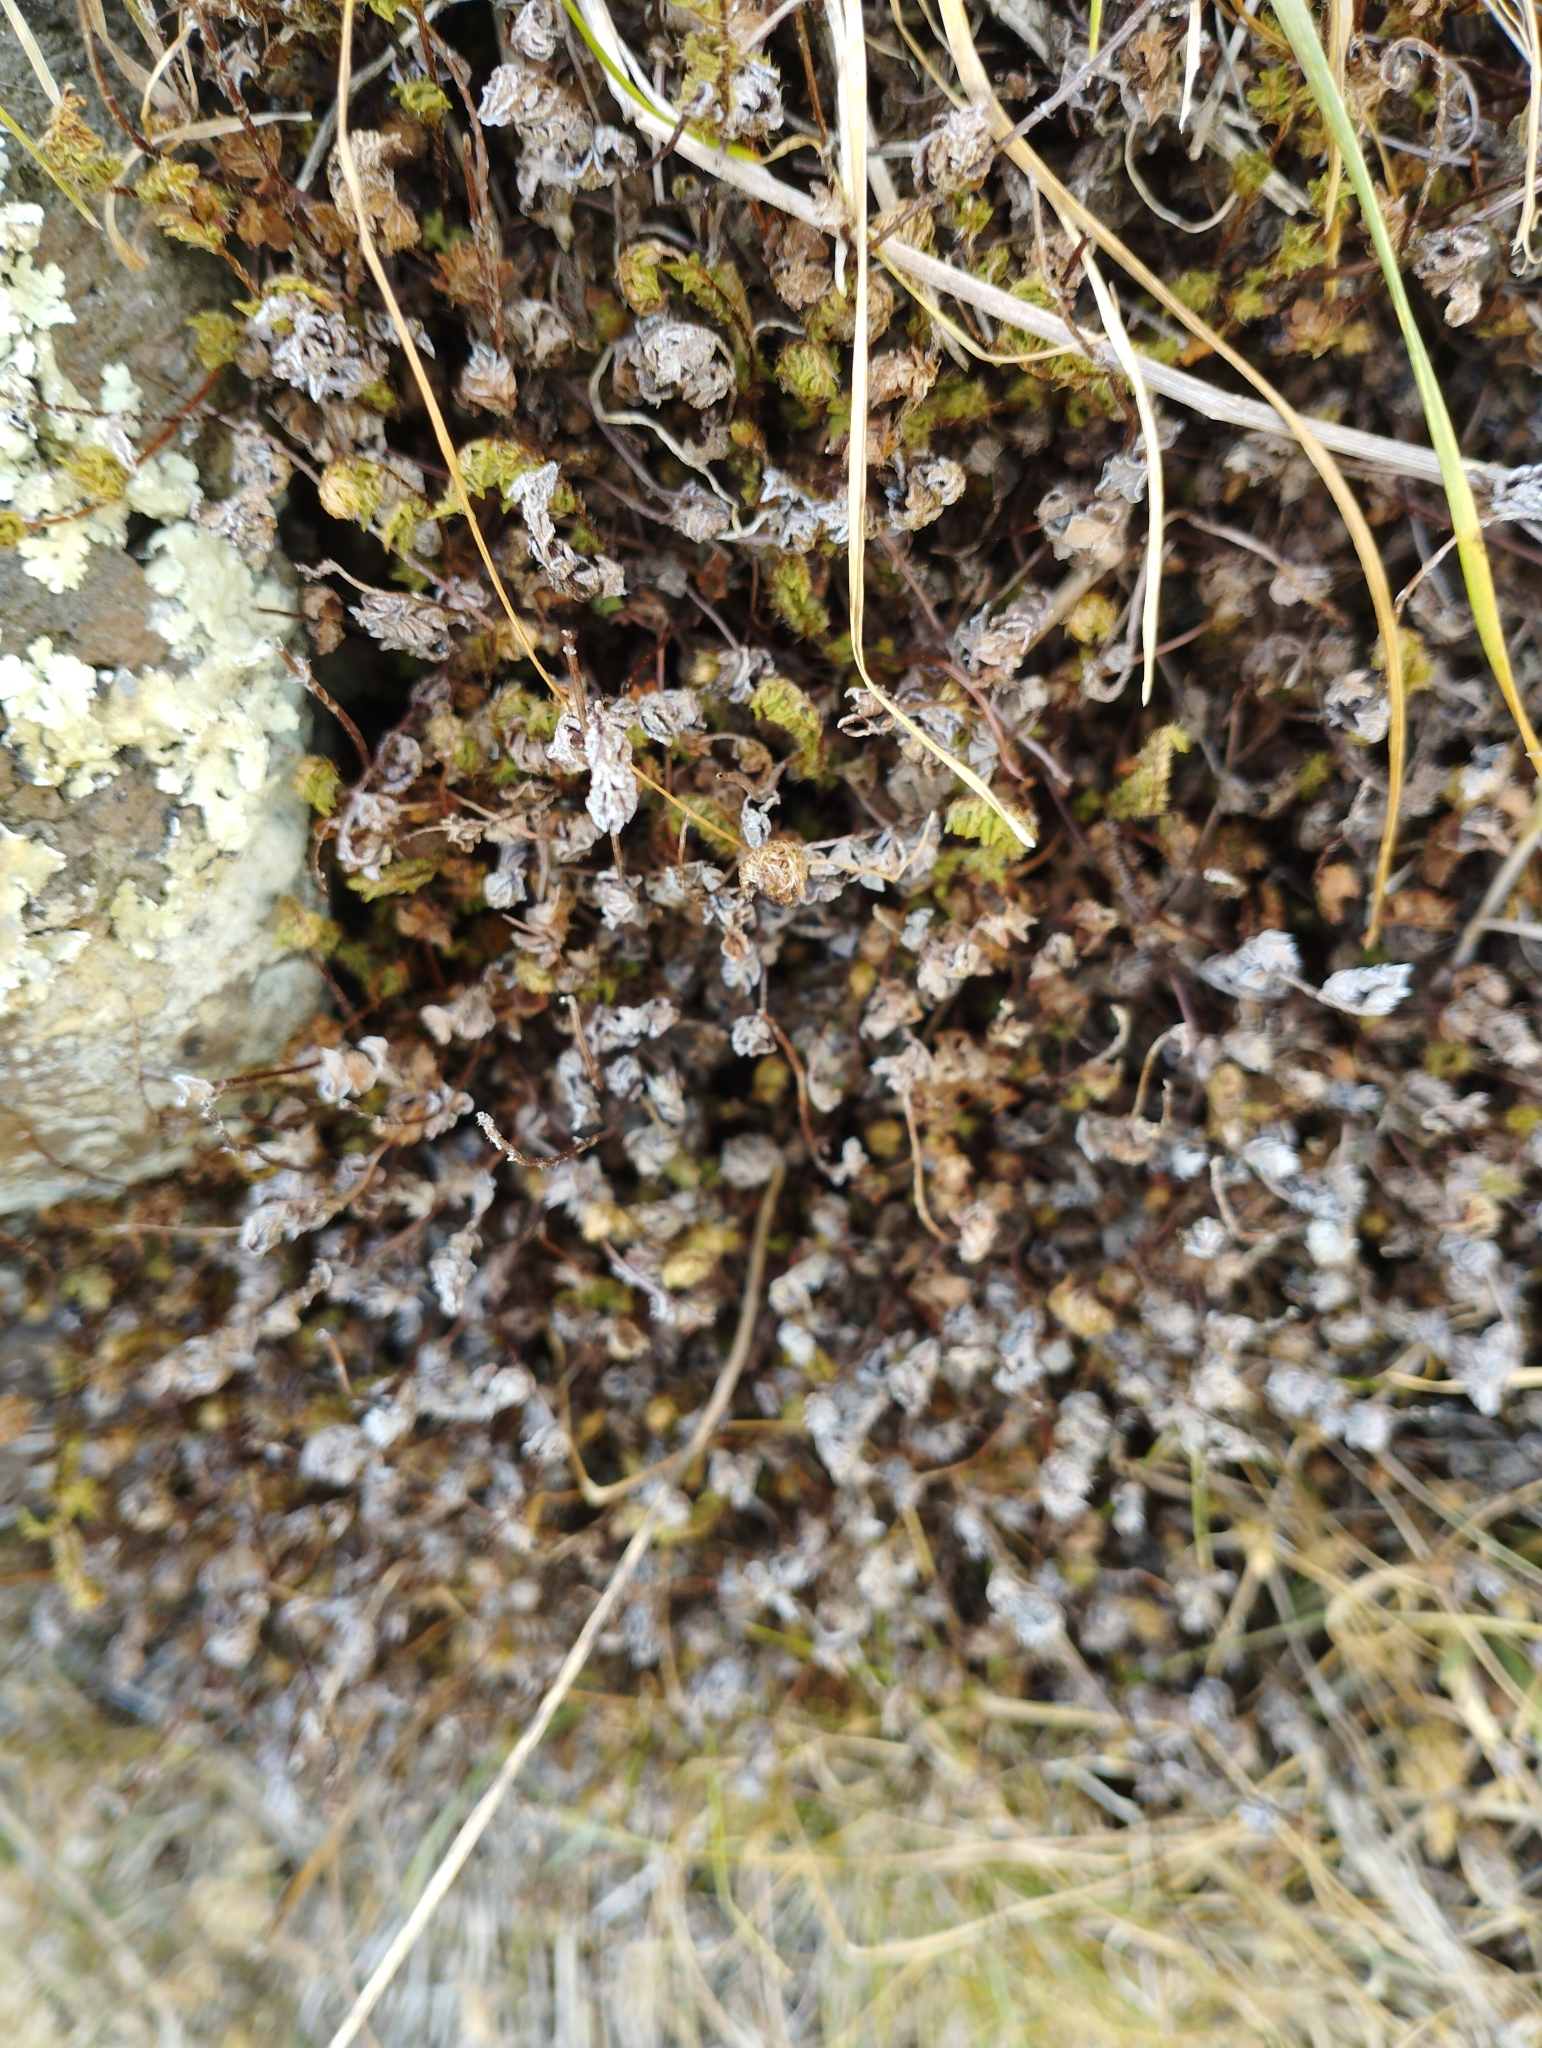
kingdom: Plantae
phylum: Tracheophyta
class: Polypodiopsida
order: Polypodiales
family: Pteridaceae
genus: Cheilanthes
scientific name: Cheilanthes distans
